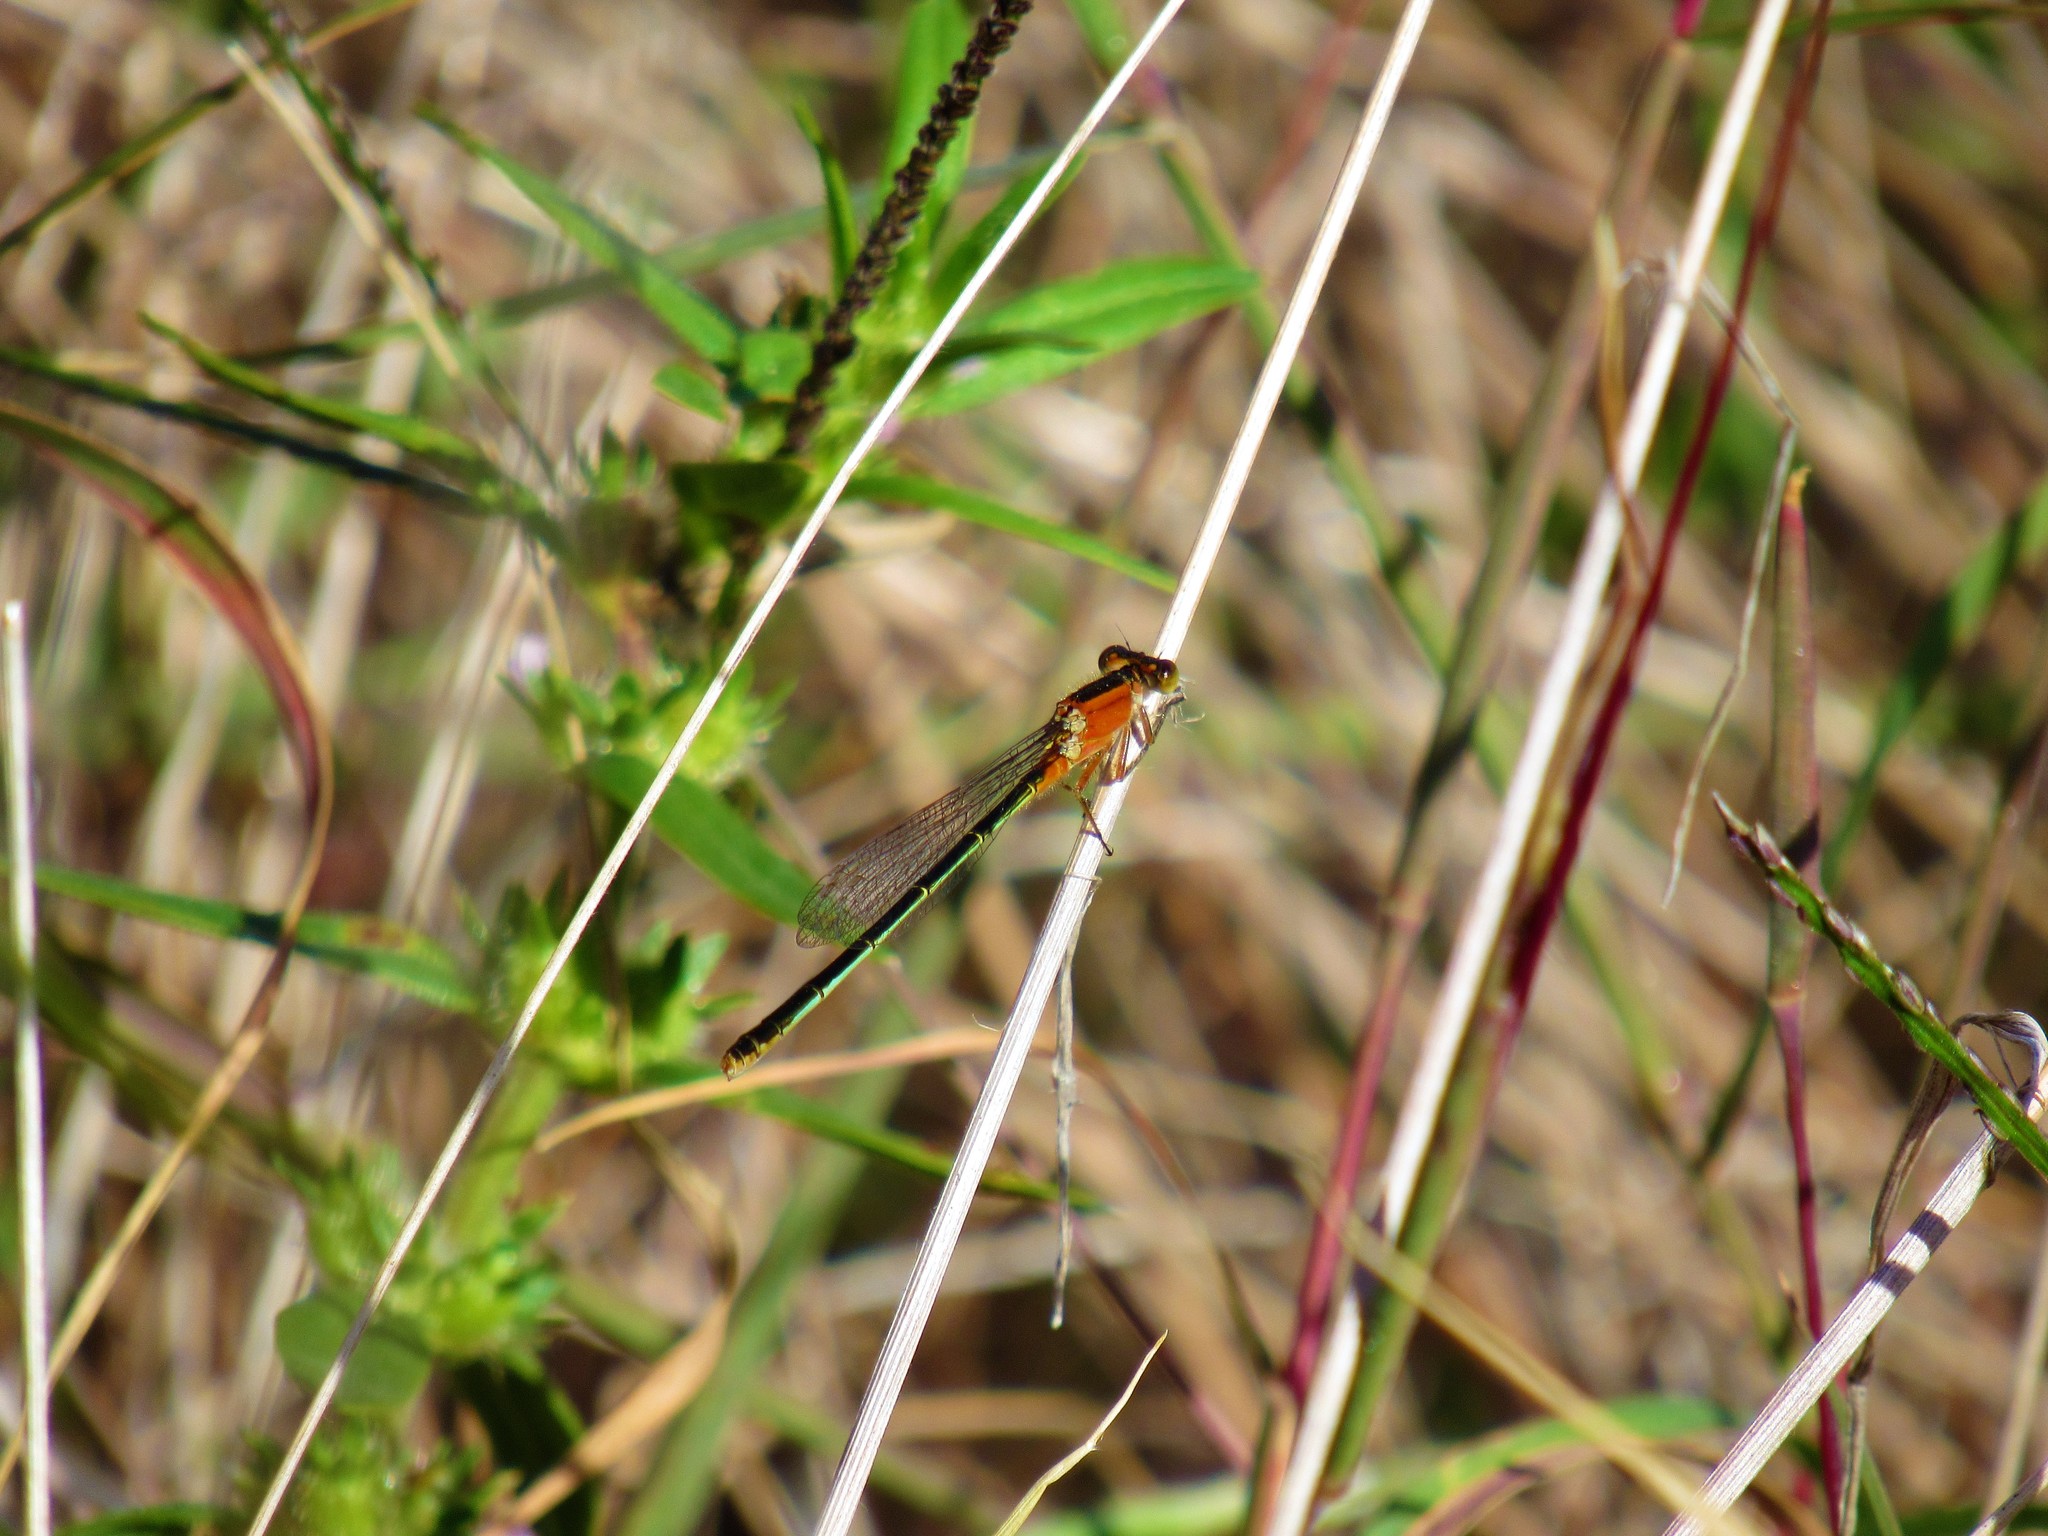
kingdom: Animalia
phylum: Arthropoda
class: Insecta
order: Odonata
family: Coenagrionidae
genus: Ischnura
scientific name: Ischnura ramburii
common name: Rambur's forktail
